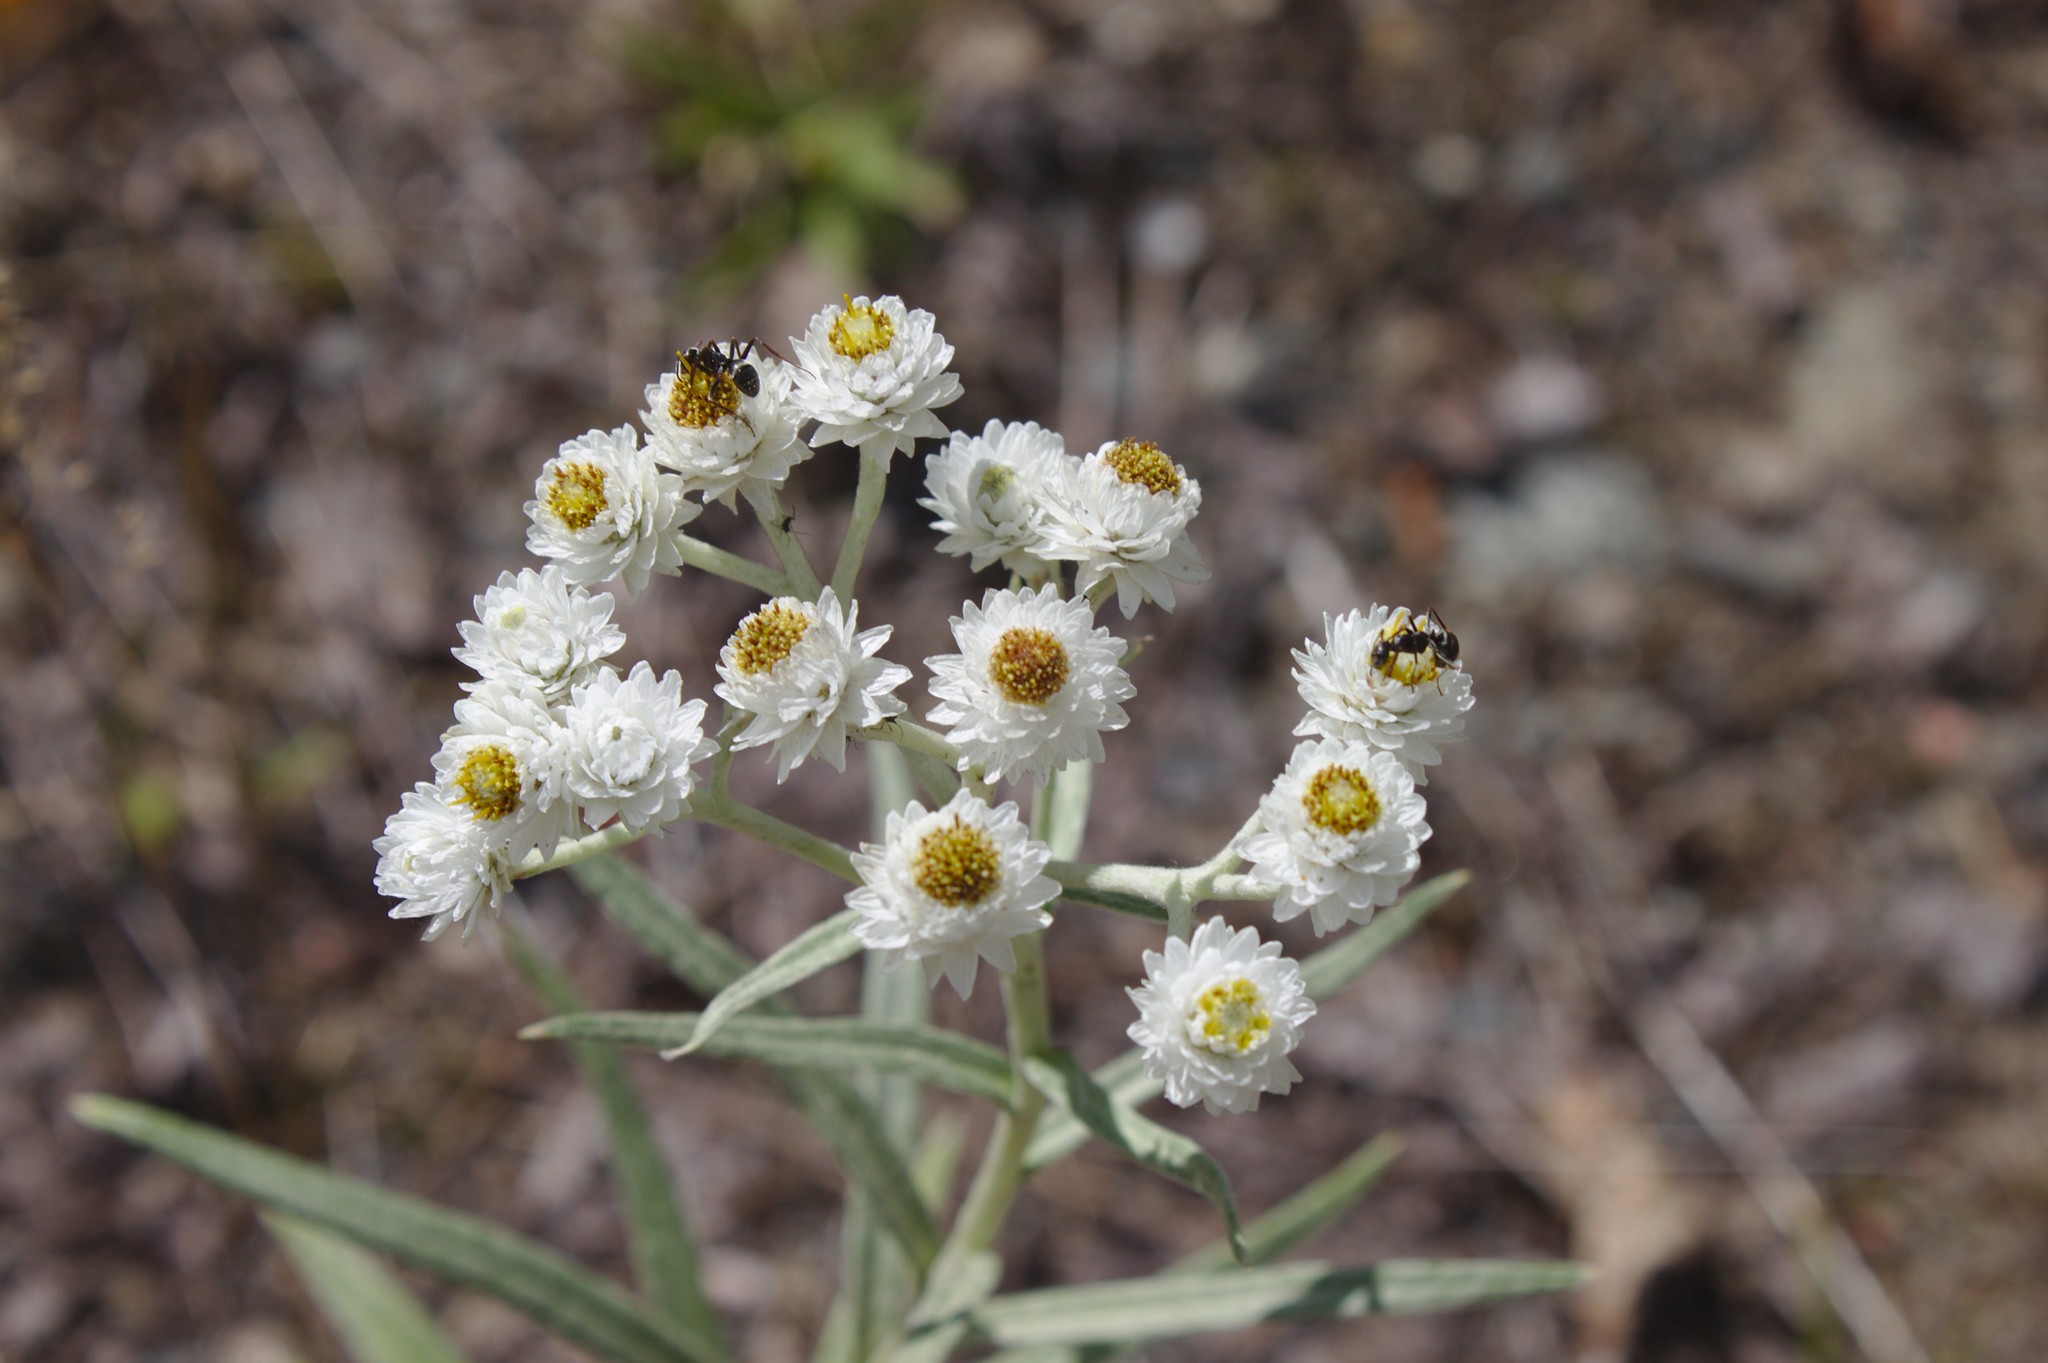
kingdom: Plantae
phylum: Tracheophyta
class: Magnoliopsida
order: Asterales
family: Asteraceae
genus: Anaphalis
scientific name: Anaphalis margaritacea
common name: Pearly everlasting
